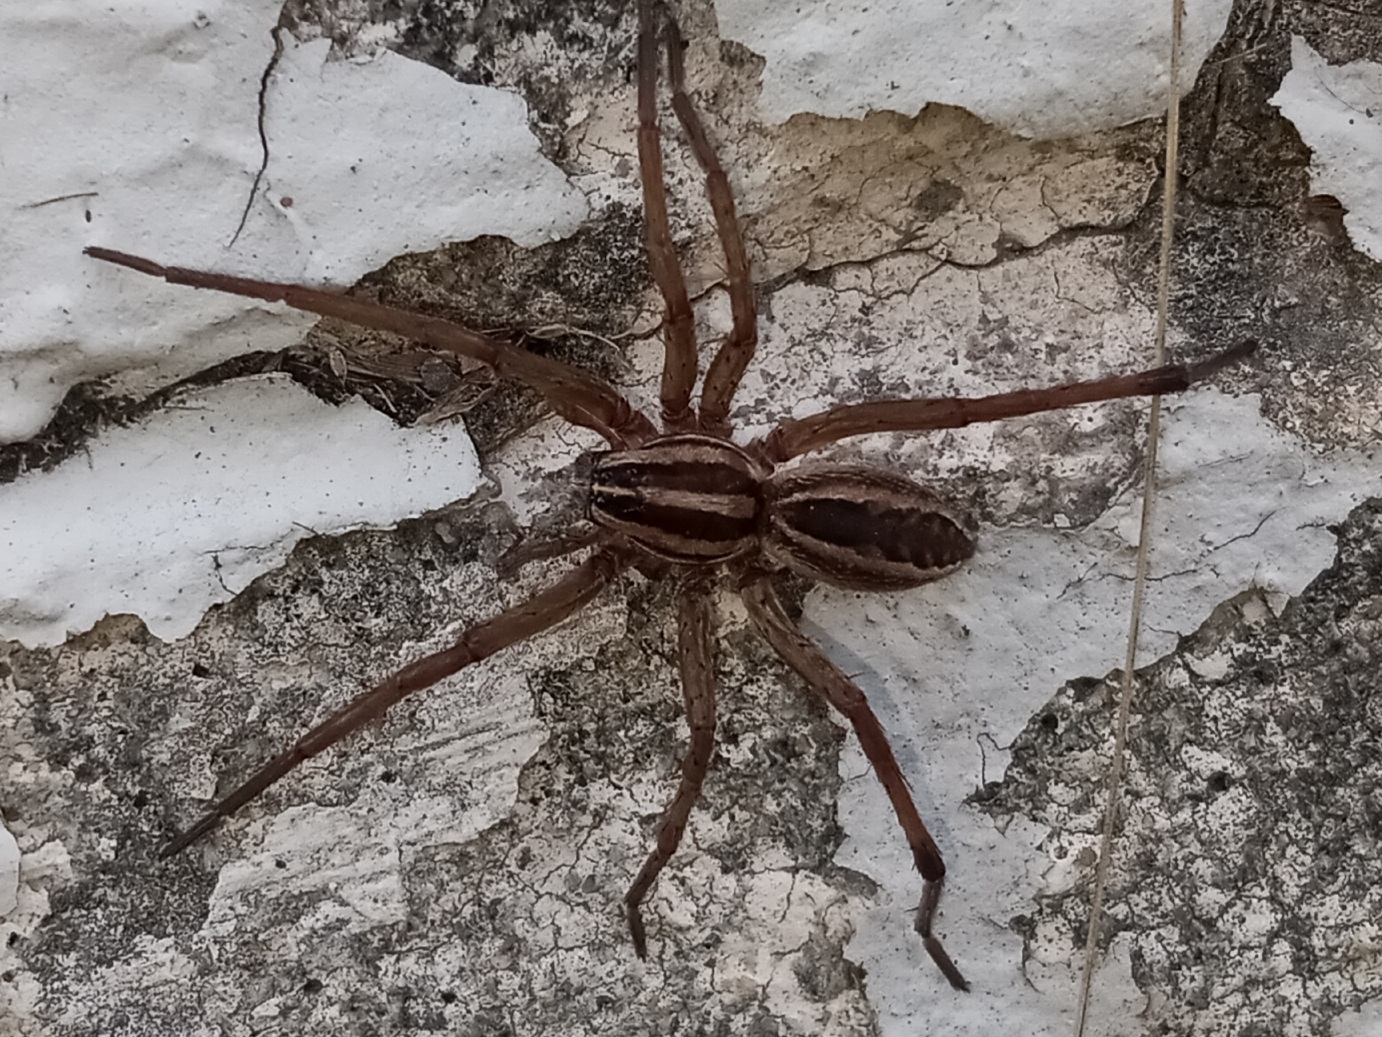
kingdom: Animalia
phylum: Arthropoda
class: Arachnida
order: Araneae
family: Lycosidae
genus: Rabidosa
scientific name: Rabidosa rabida
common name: Rabid wolf spider
